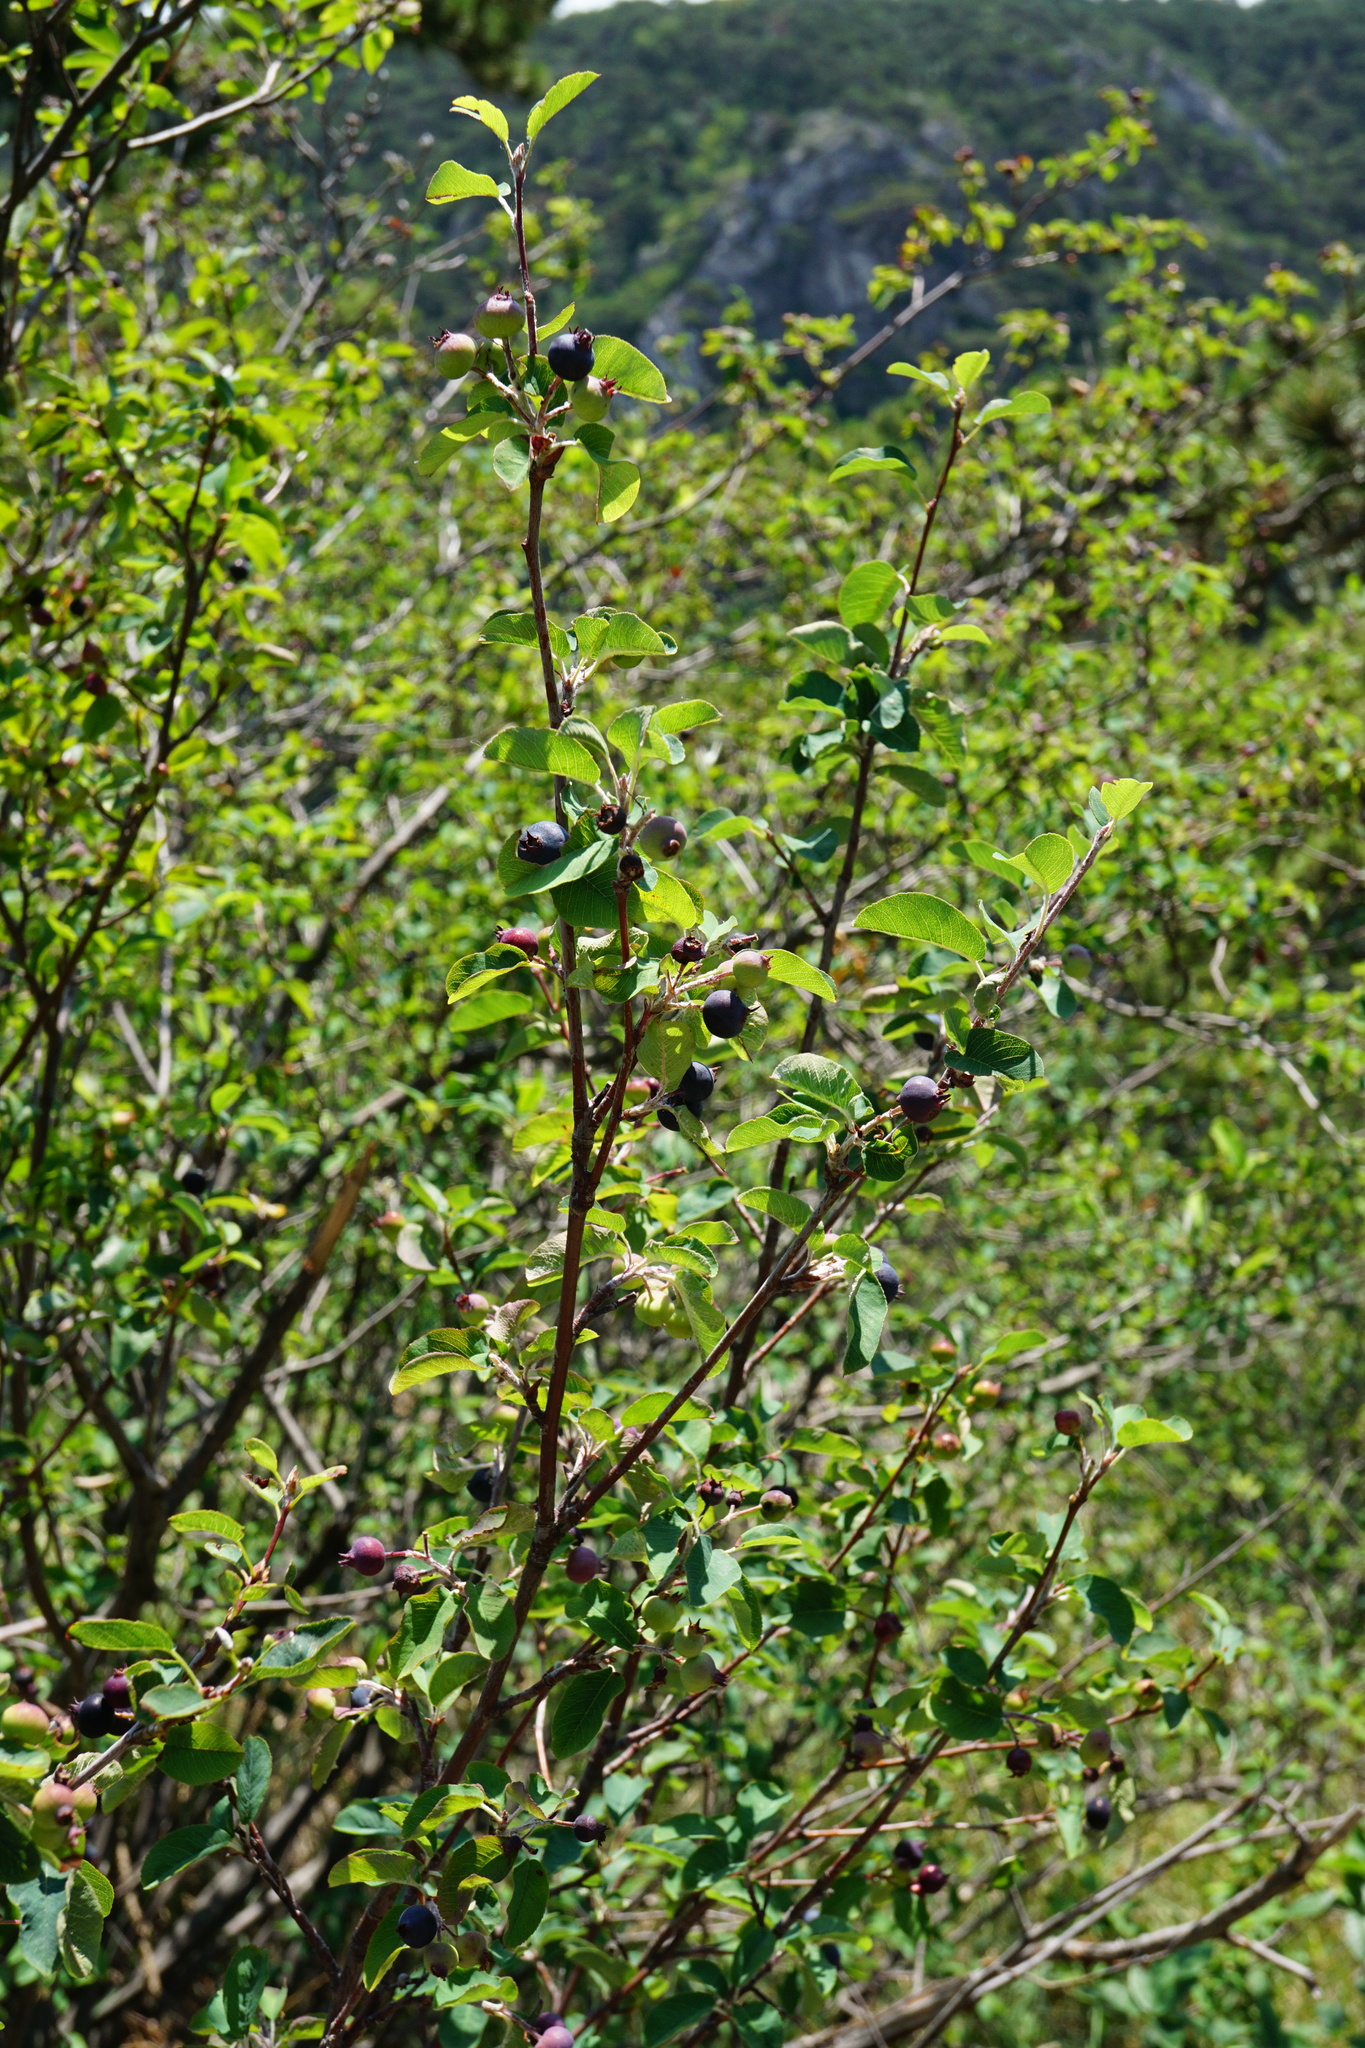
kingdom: Plantae
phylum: Tracheophyta
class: Magnoliopsida
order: Rosales
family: Rosaceae
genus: Amelanchier
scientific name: Amelanchier ovalis
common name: Serviceberry
